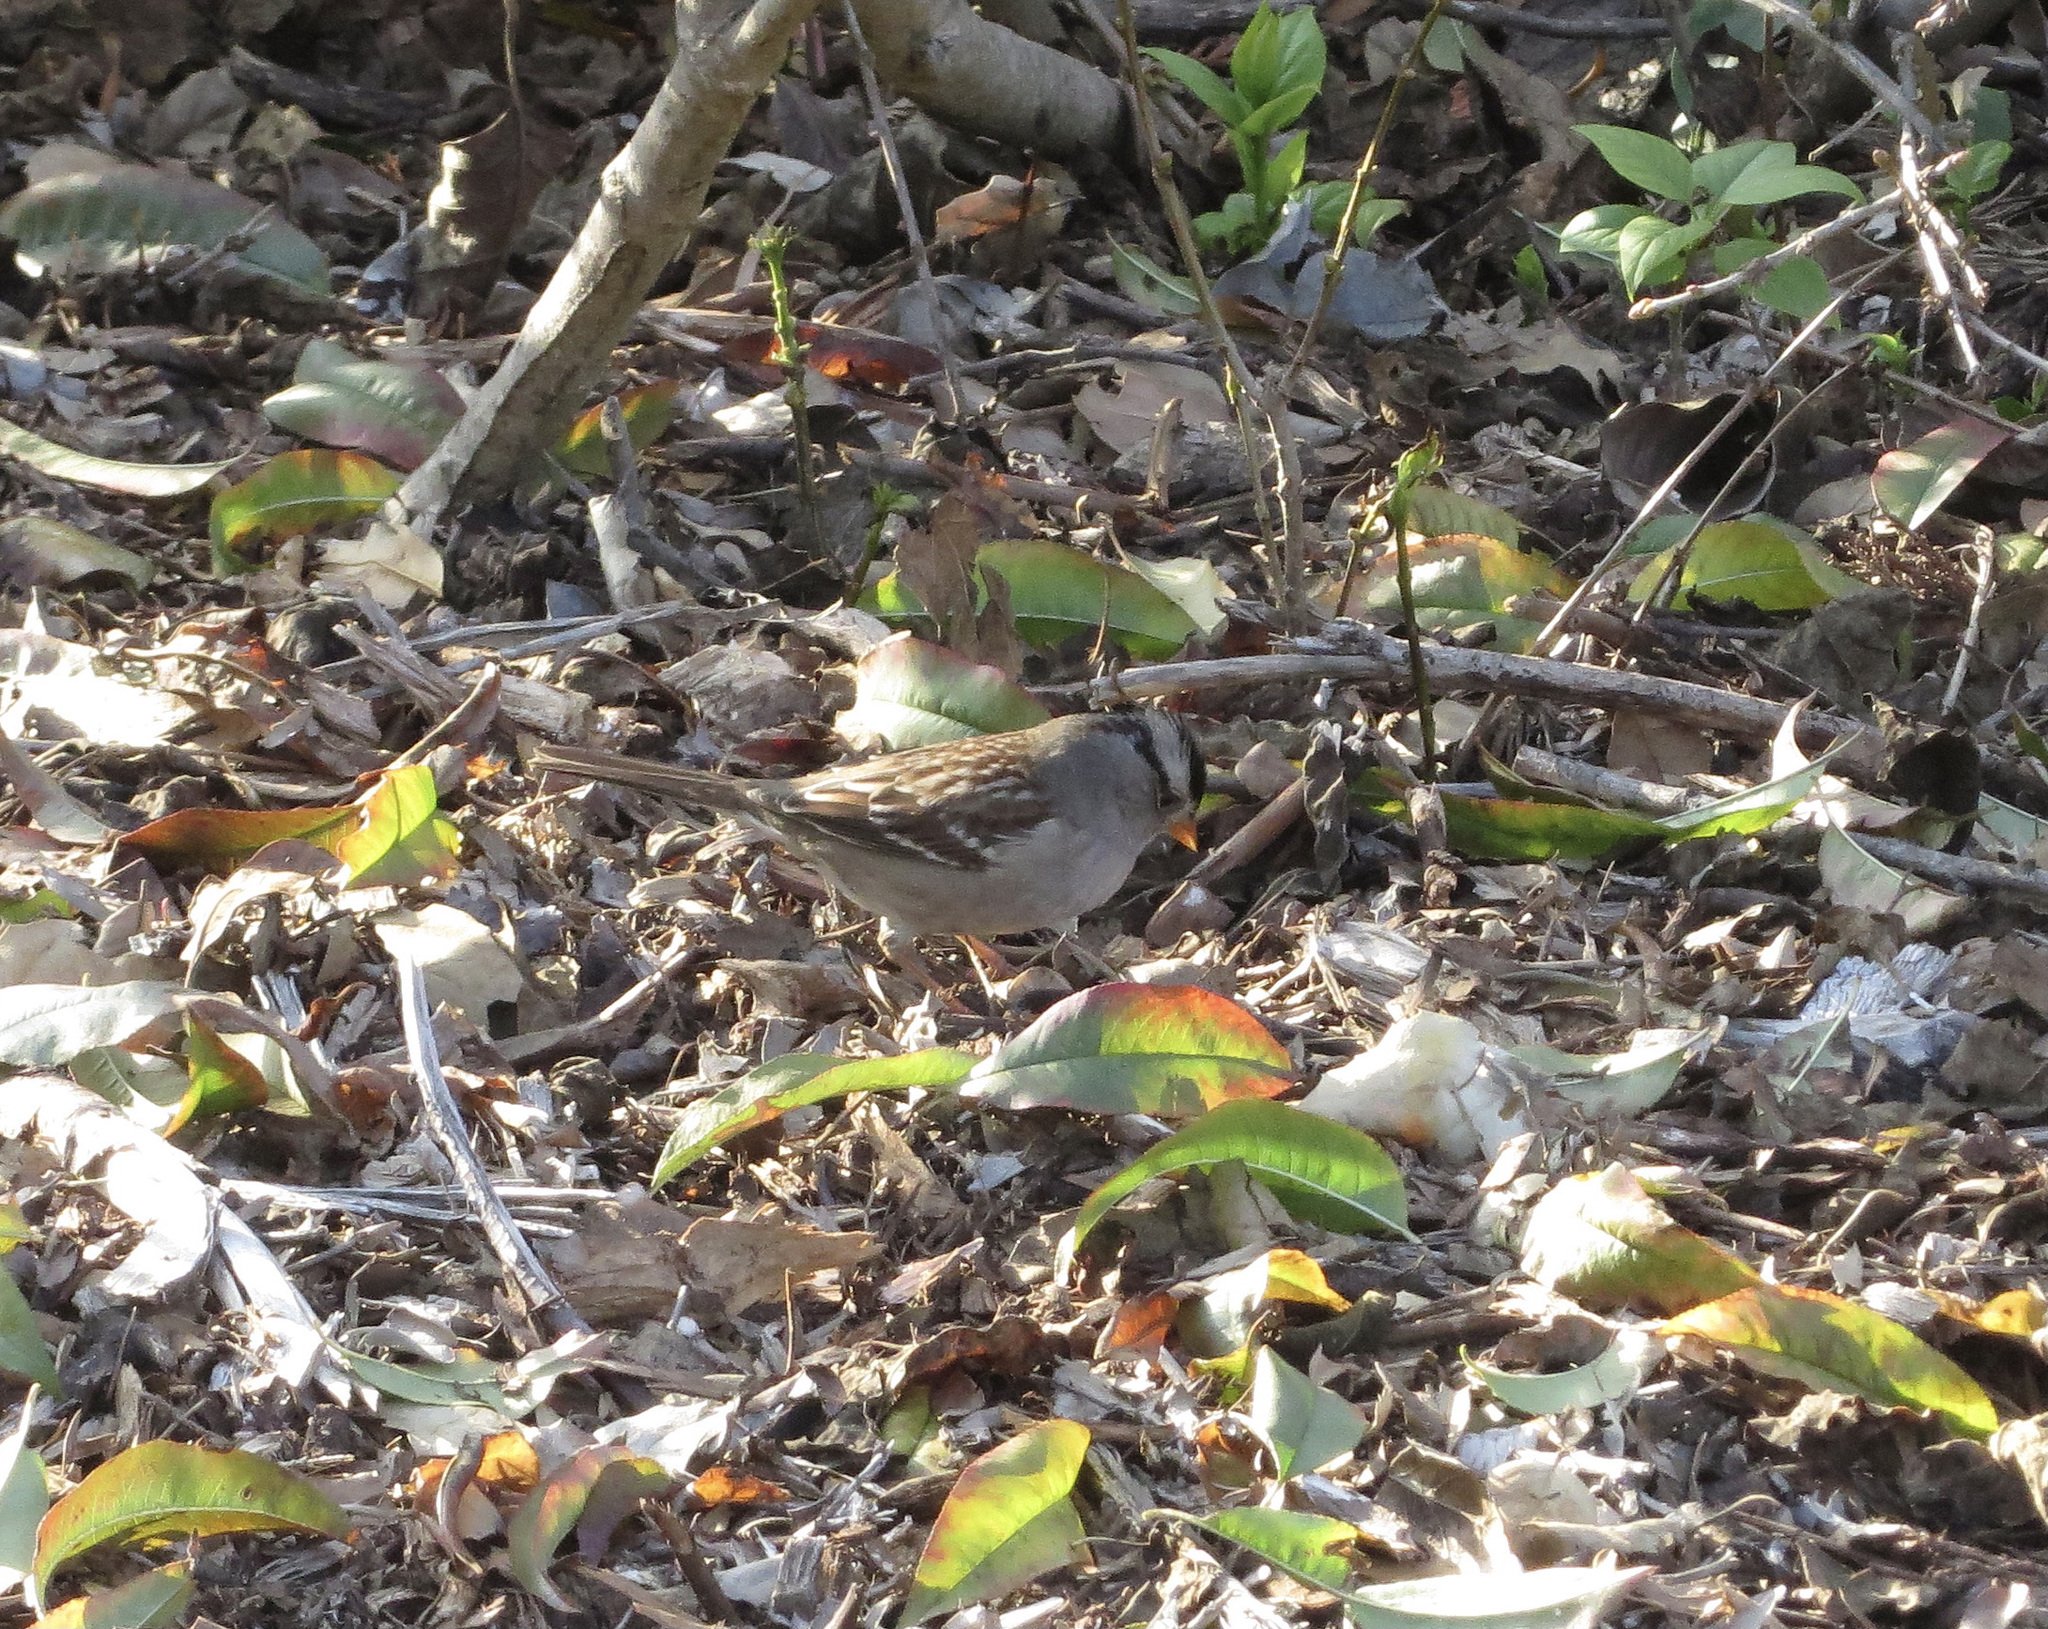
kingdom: Animalia
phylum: Chordata
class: Aves
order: Passeriformes
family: Passerellidae
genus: Zonotrichia
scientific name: Zonotrichia leucophrys
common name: White-crowned sparrow
